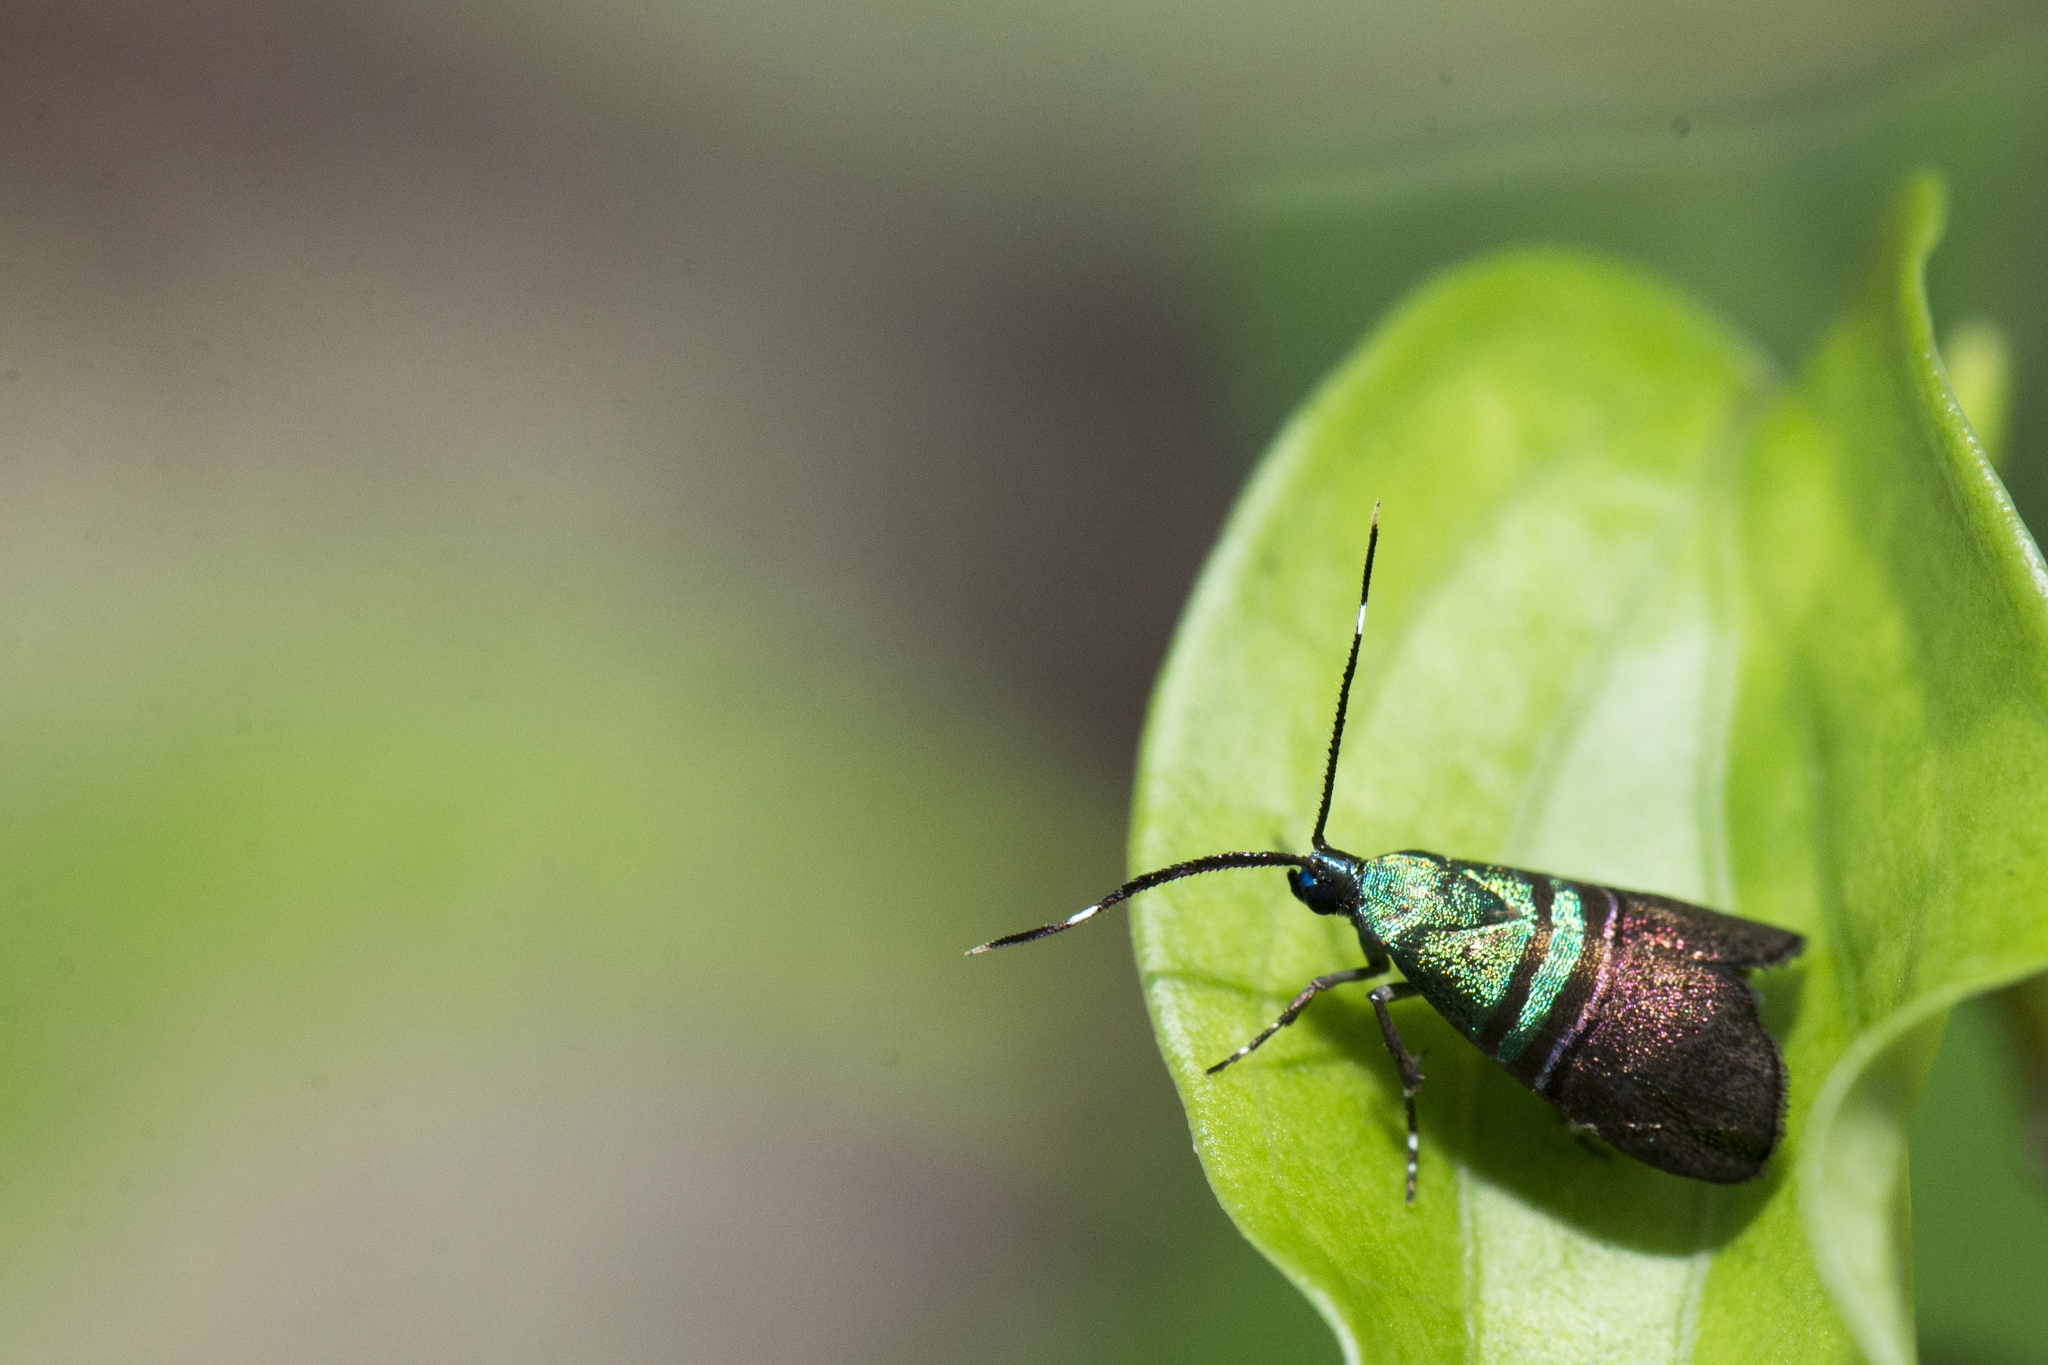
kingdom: Animalia
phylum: Arthropoda
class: Insecta
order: Lepidoptera
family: Choreutidae
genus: Saptha
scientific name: Saptha pretiosa
